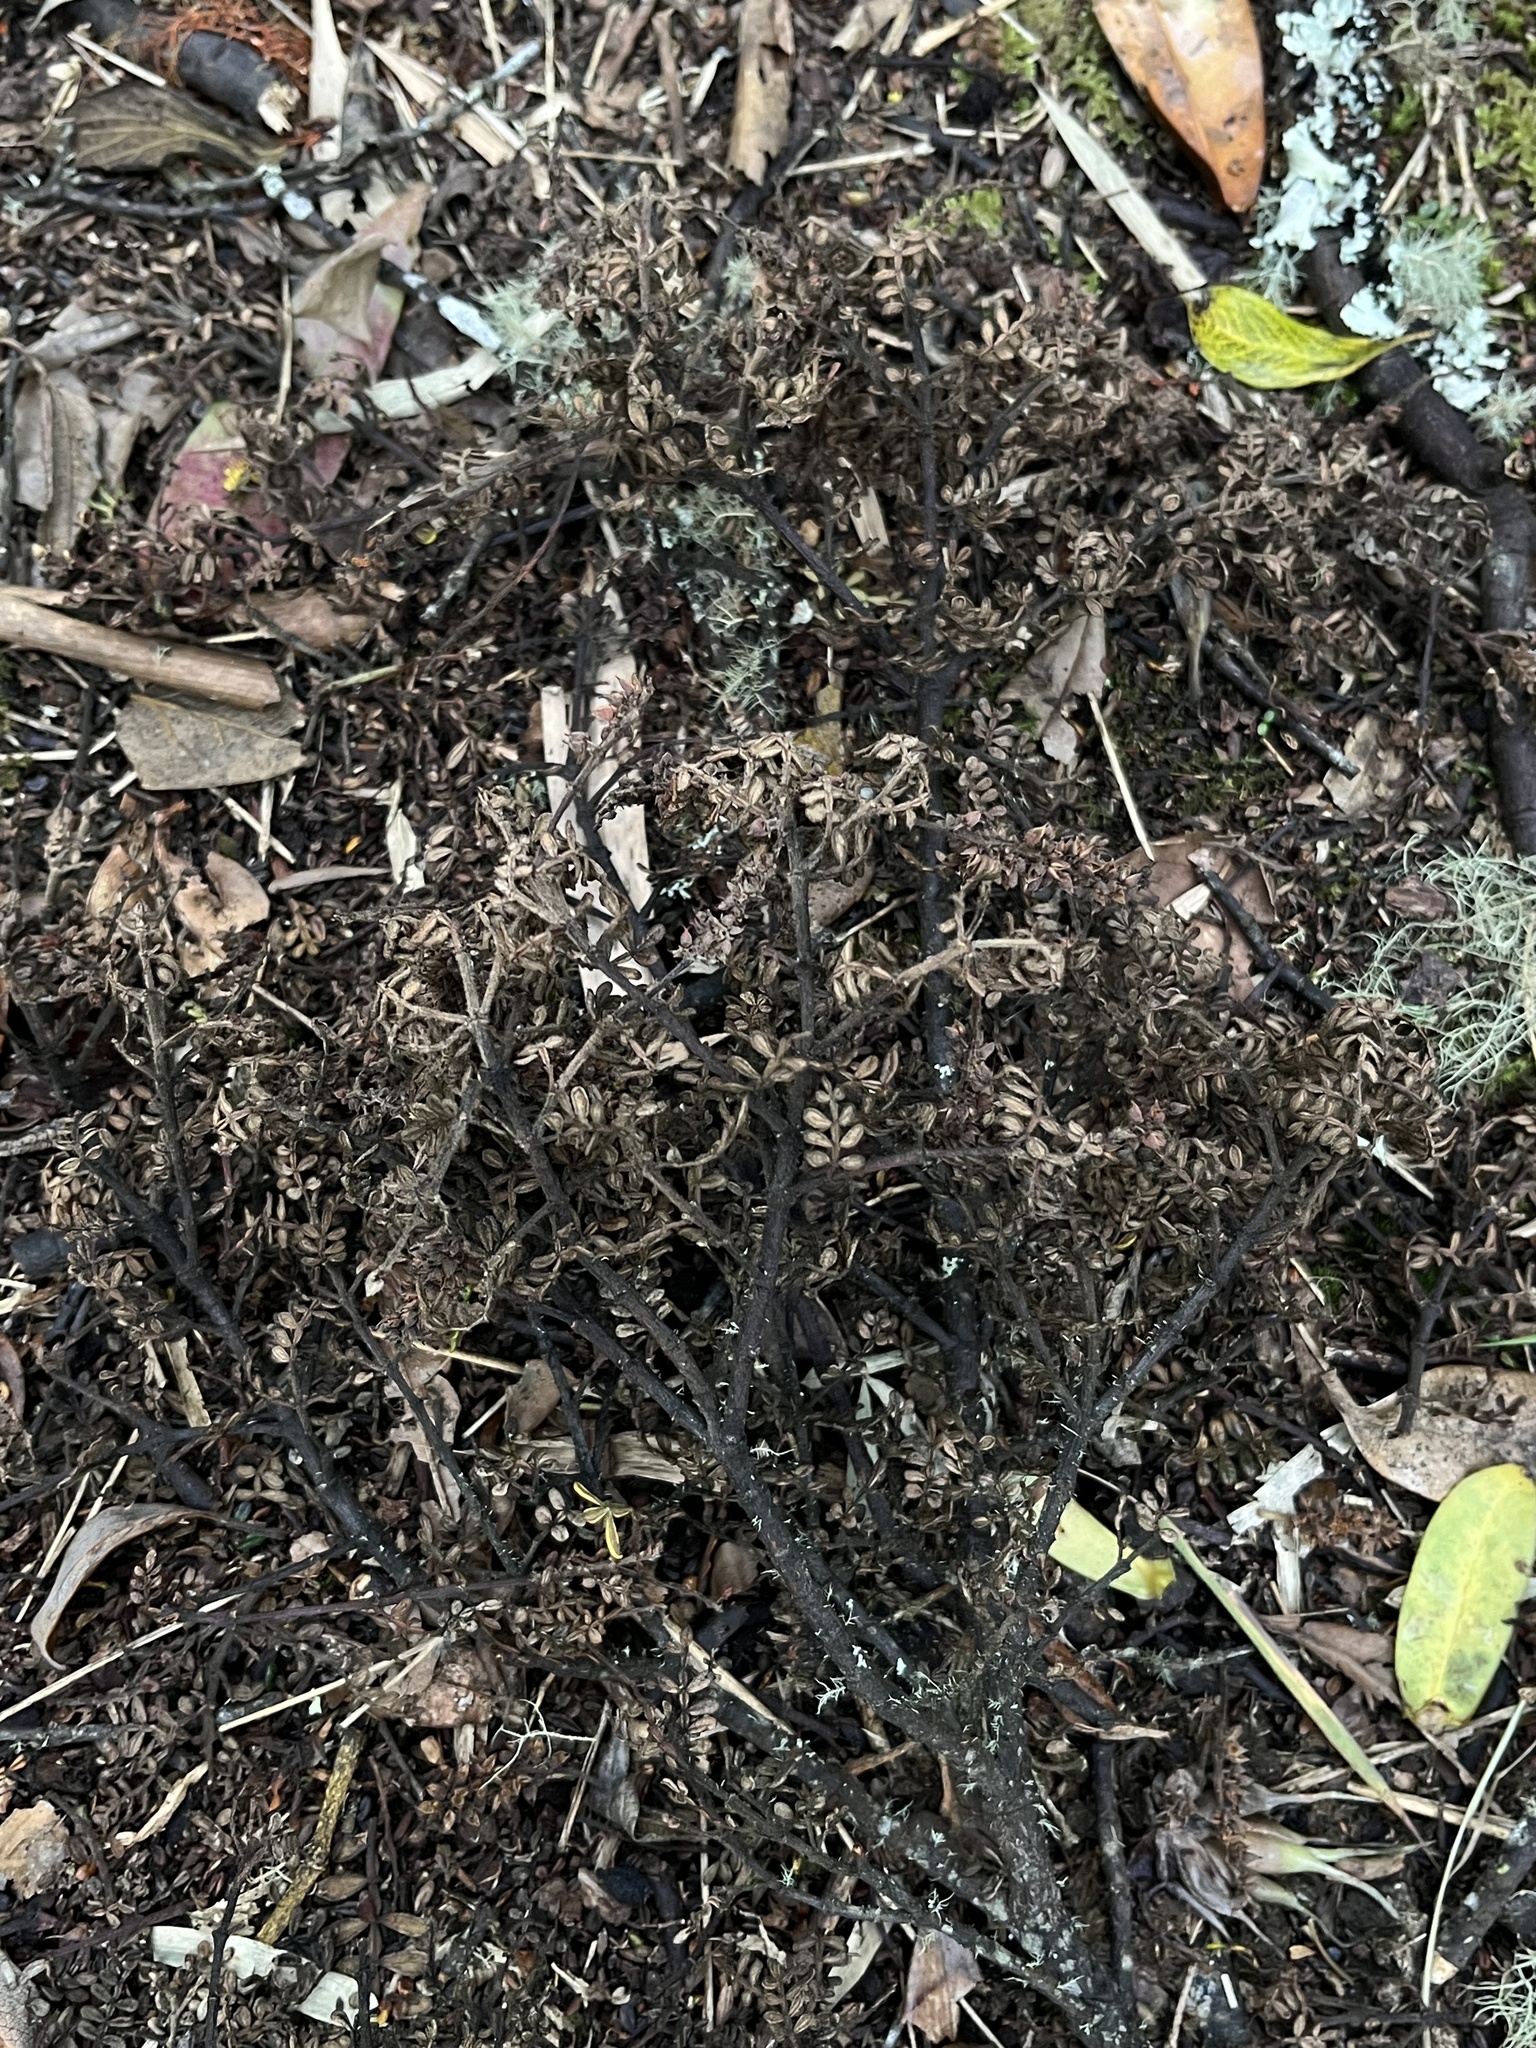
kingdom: Plantae
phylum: Tracheophyta
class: Magnoliopsida
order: Oxalidales
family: Cunoniaceae
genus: Weinmannia
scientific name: Weinmannia tomentosa
